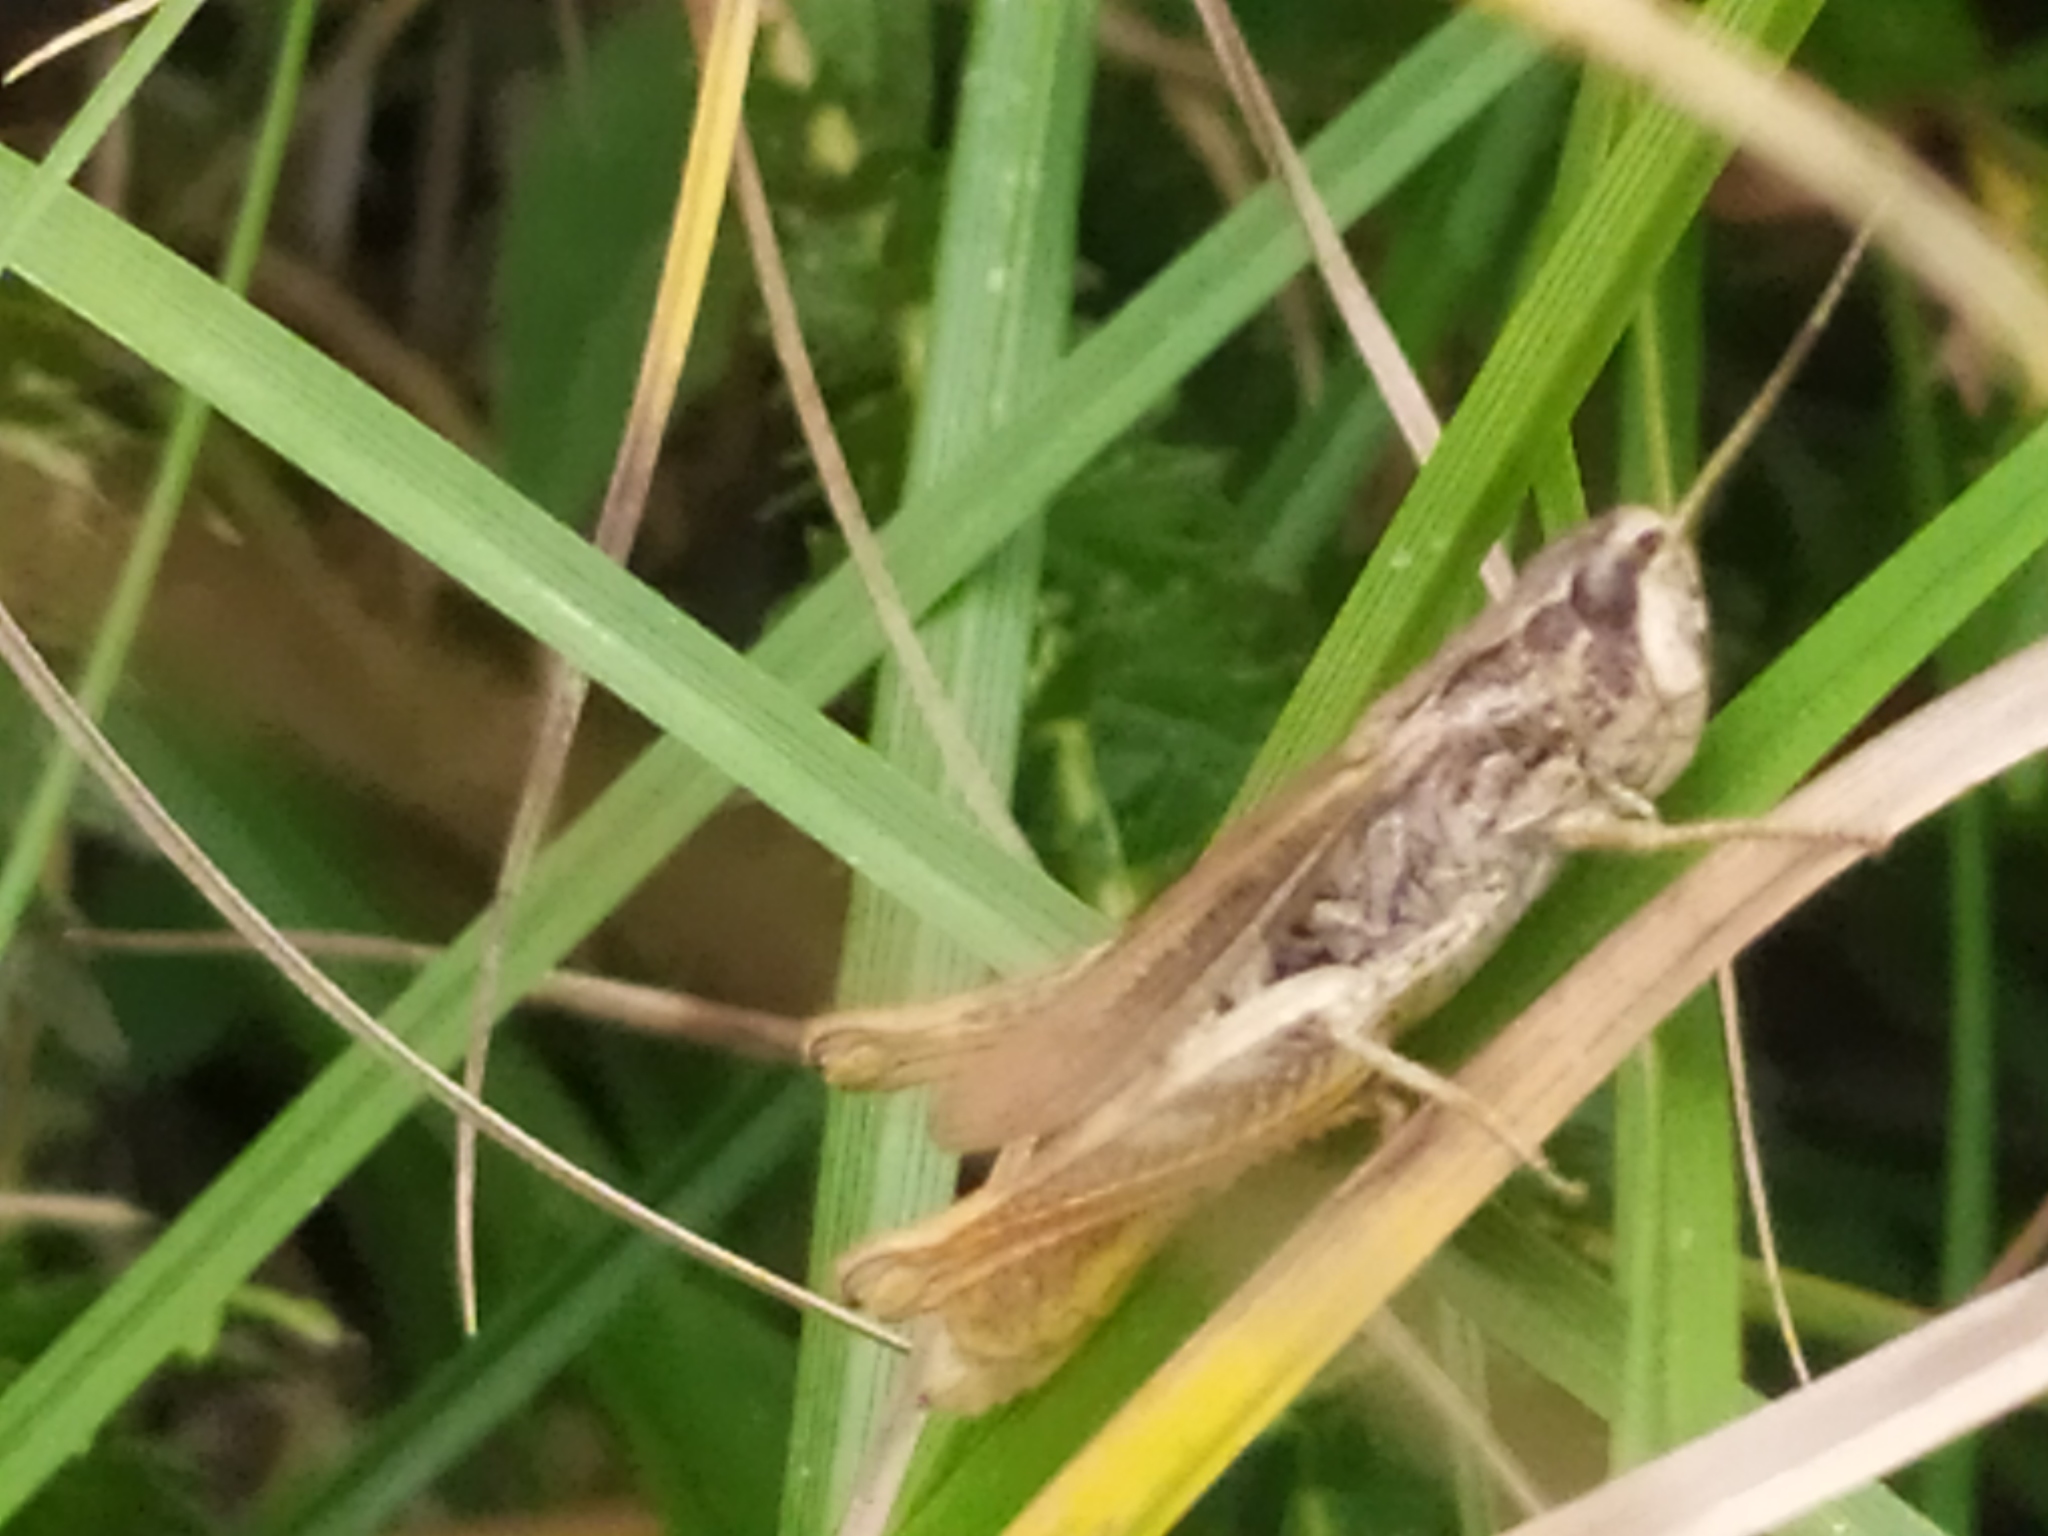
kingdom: Animalia
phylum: Arthropoda
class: Insecta
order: Orthoptera
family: Acrididae
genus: Chorthippus
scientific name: Chorthippus apricarius
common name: Upland field grasshopper
